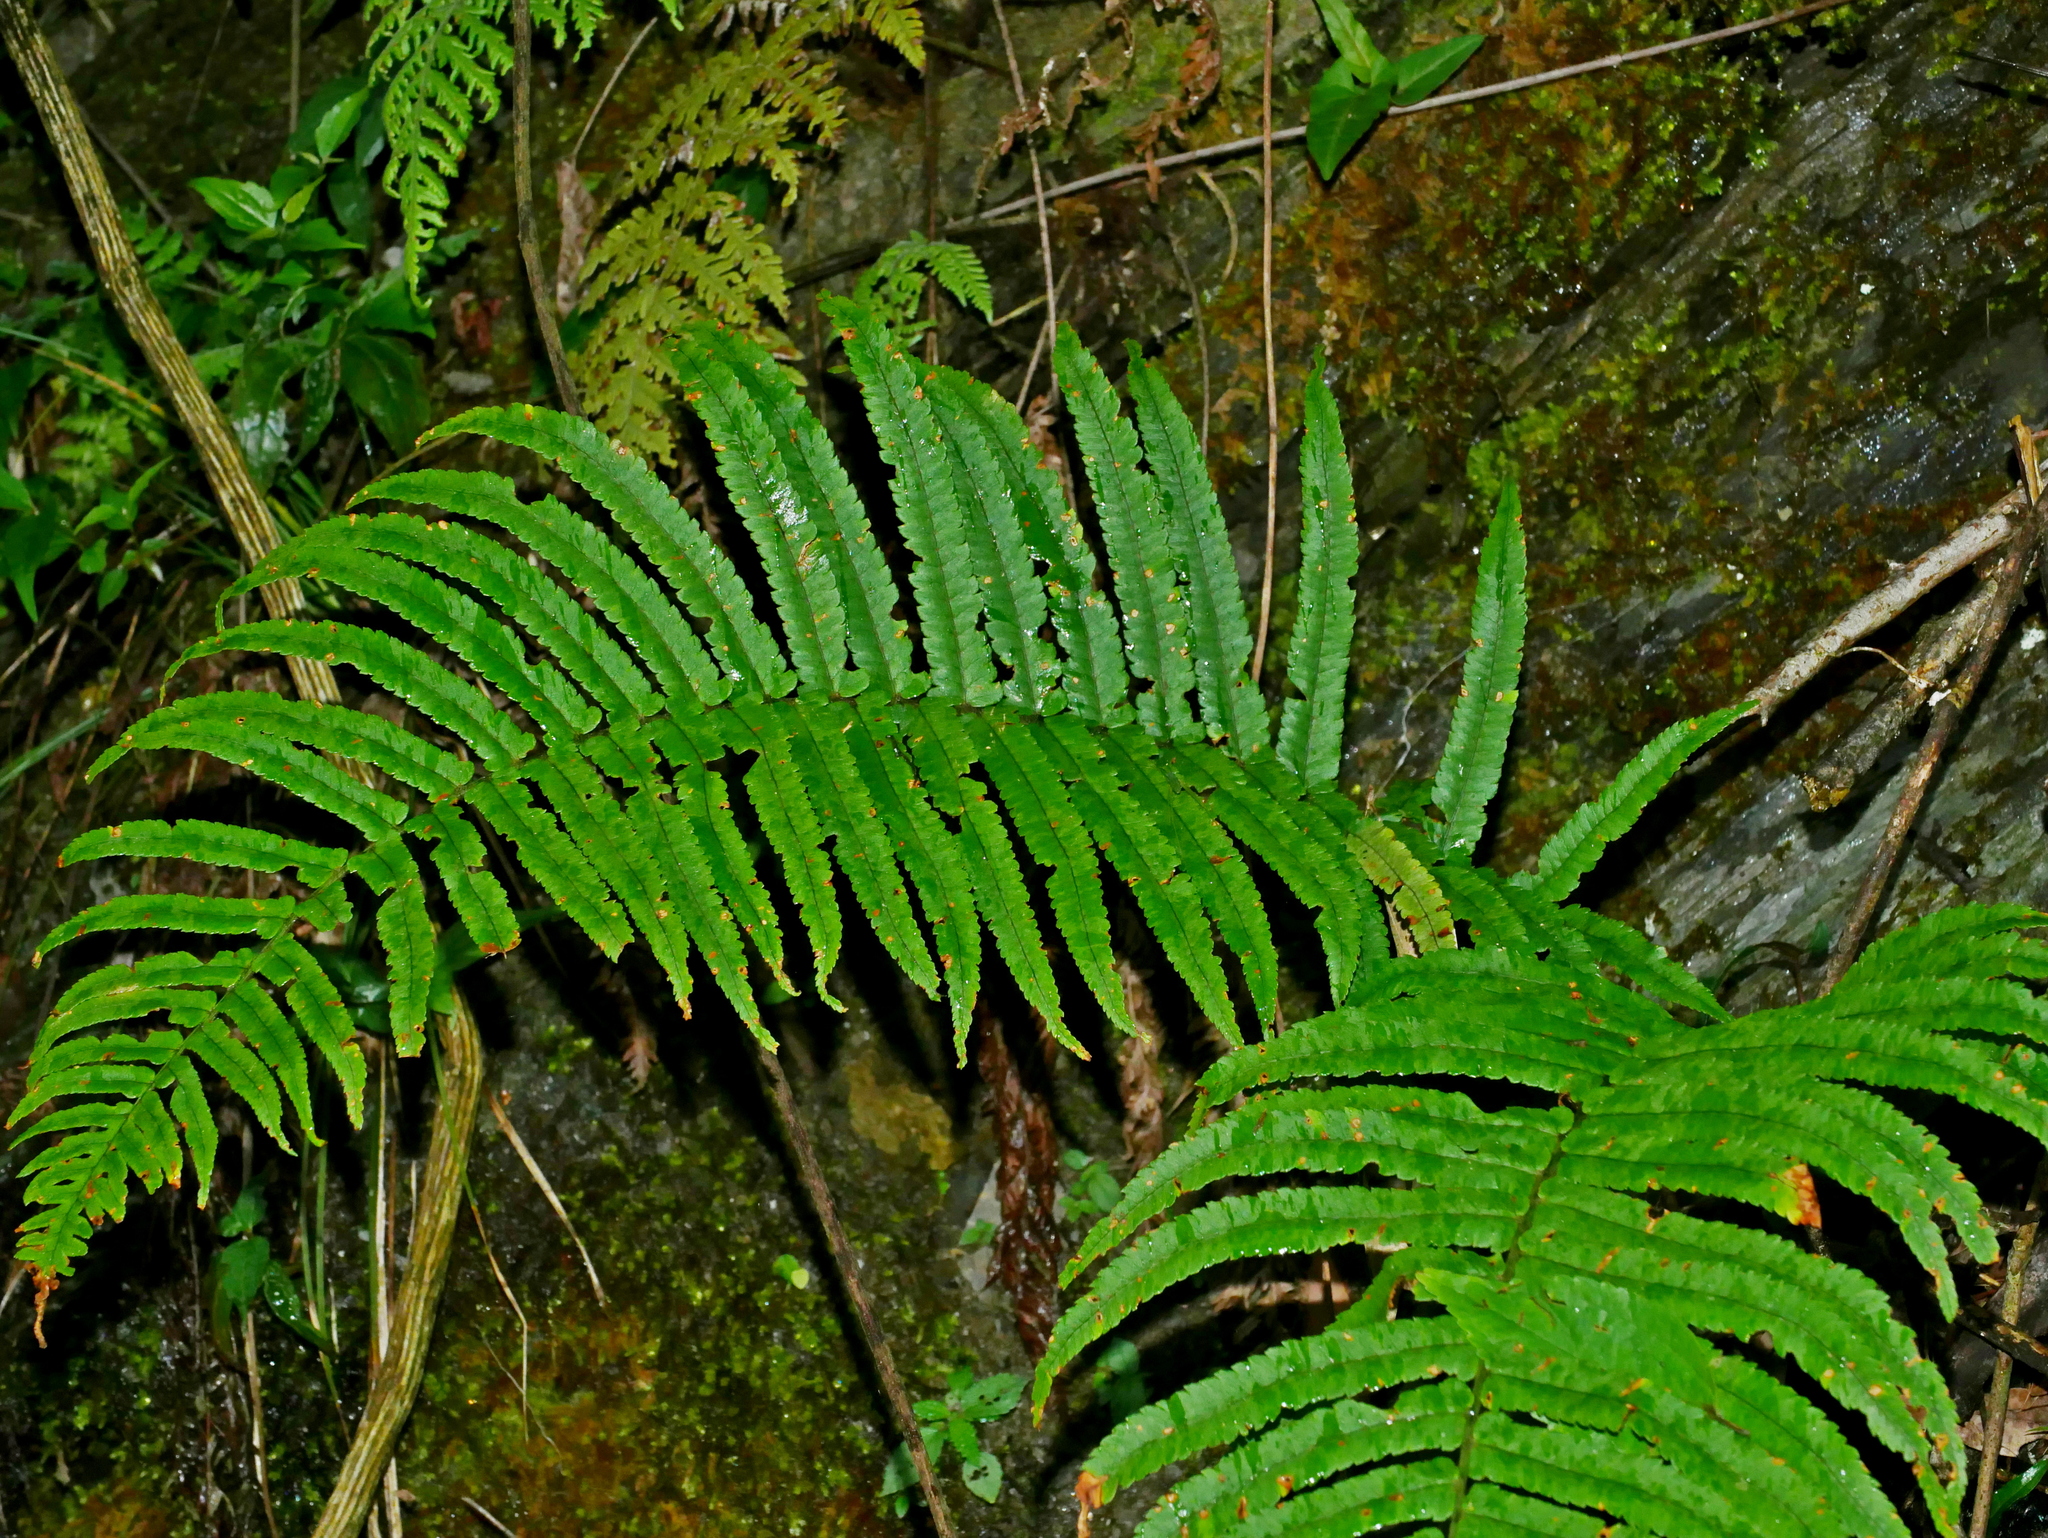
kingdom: Plantae
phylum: Tracheophyta
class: Polypodiopsida
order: Polypodiales
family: Dryopteridaceae
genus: Dryopteris
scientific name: Dryopteris atrata
